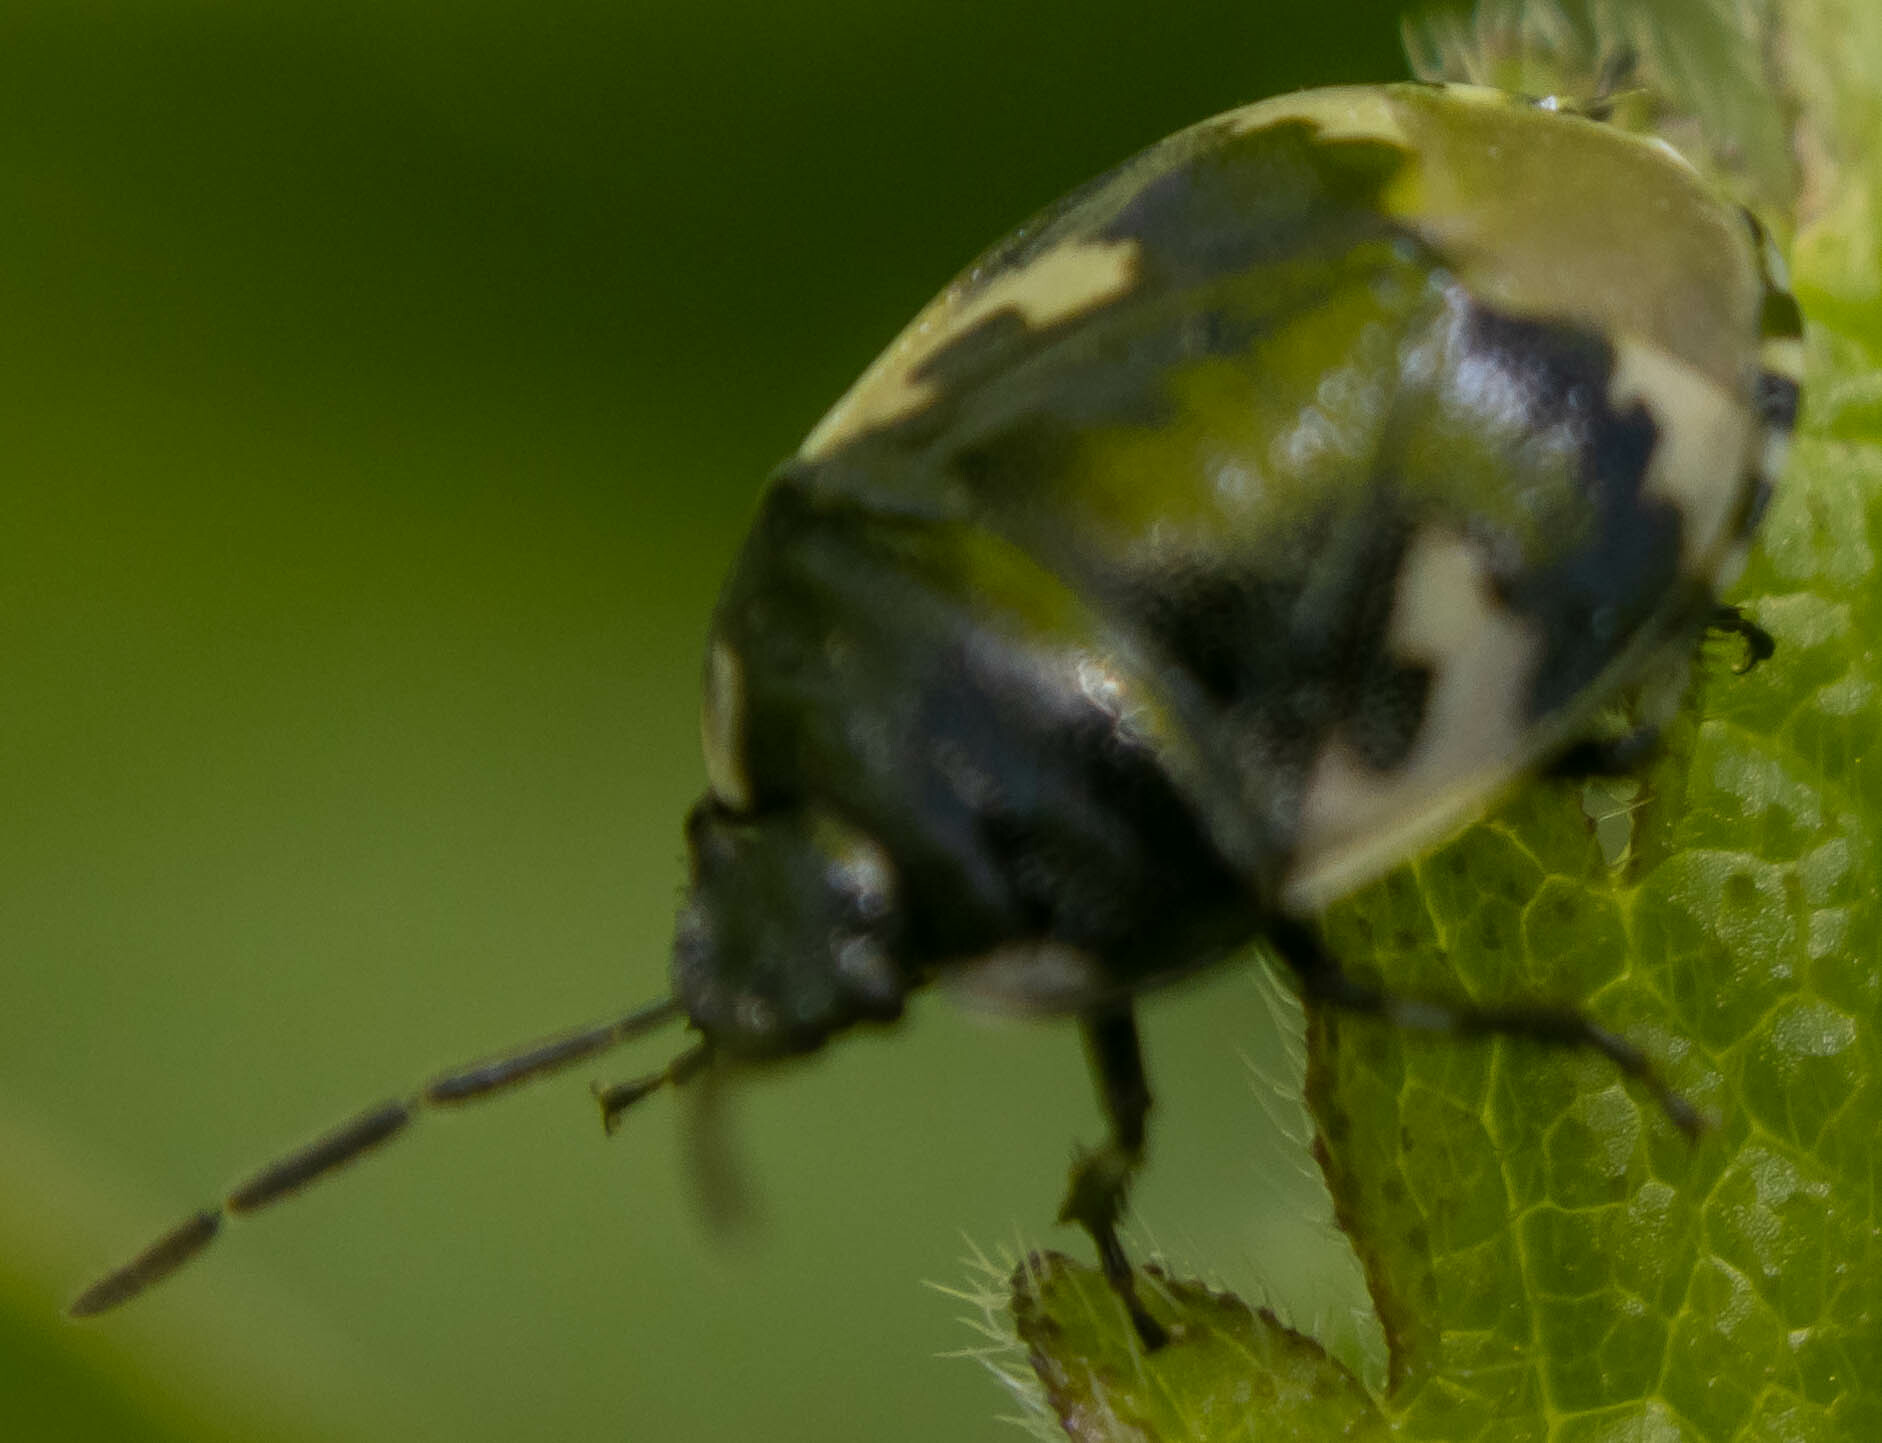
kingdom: Animalia
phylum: Arthropoda
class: Insecta
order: Hemiptera
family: Cydnidae
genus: Tritomegas
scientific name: Tritomegas bicolor
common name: Pied shieldbug
